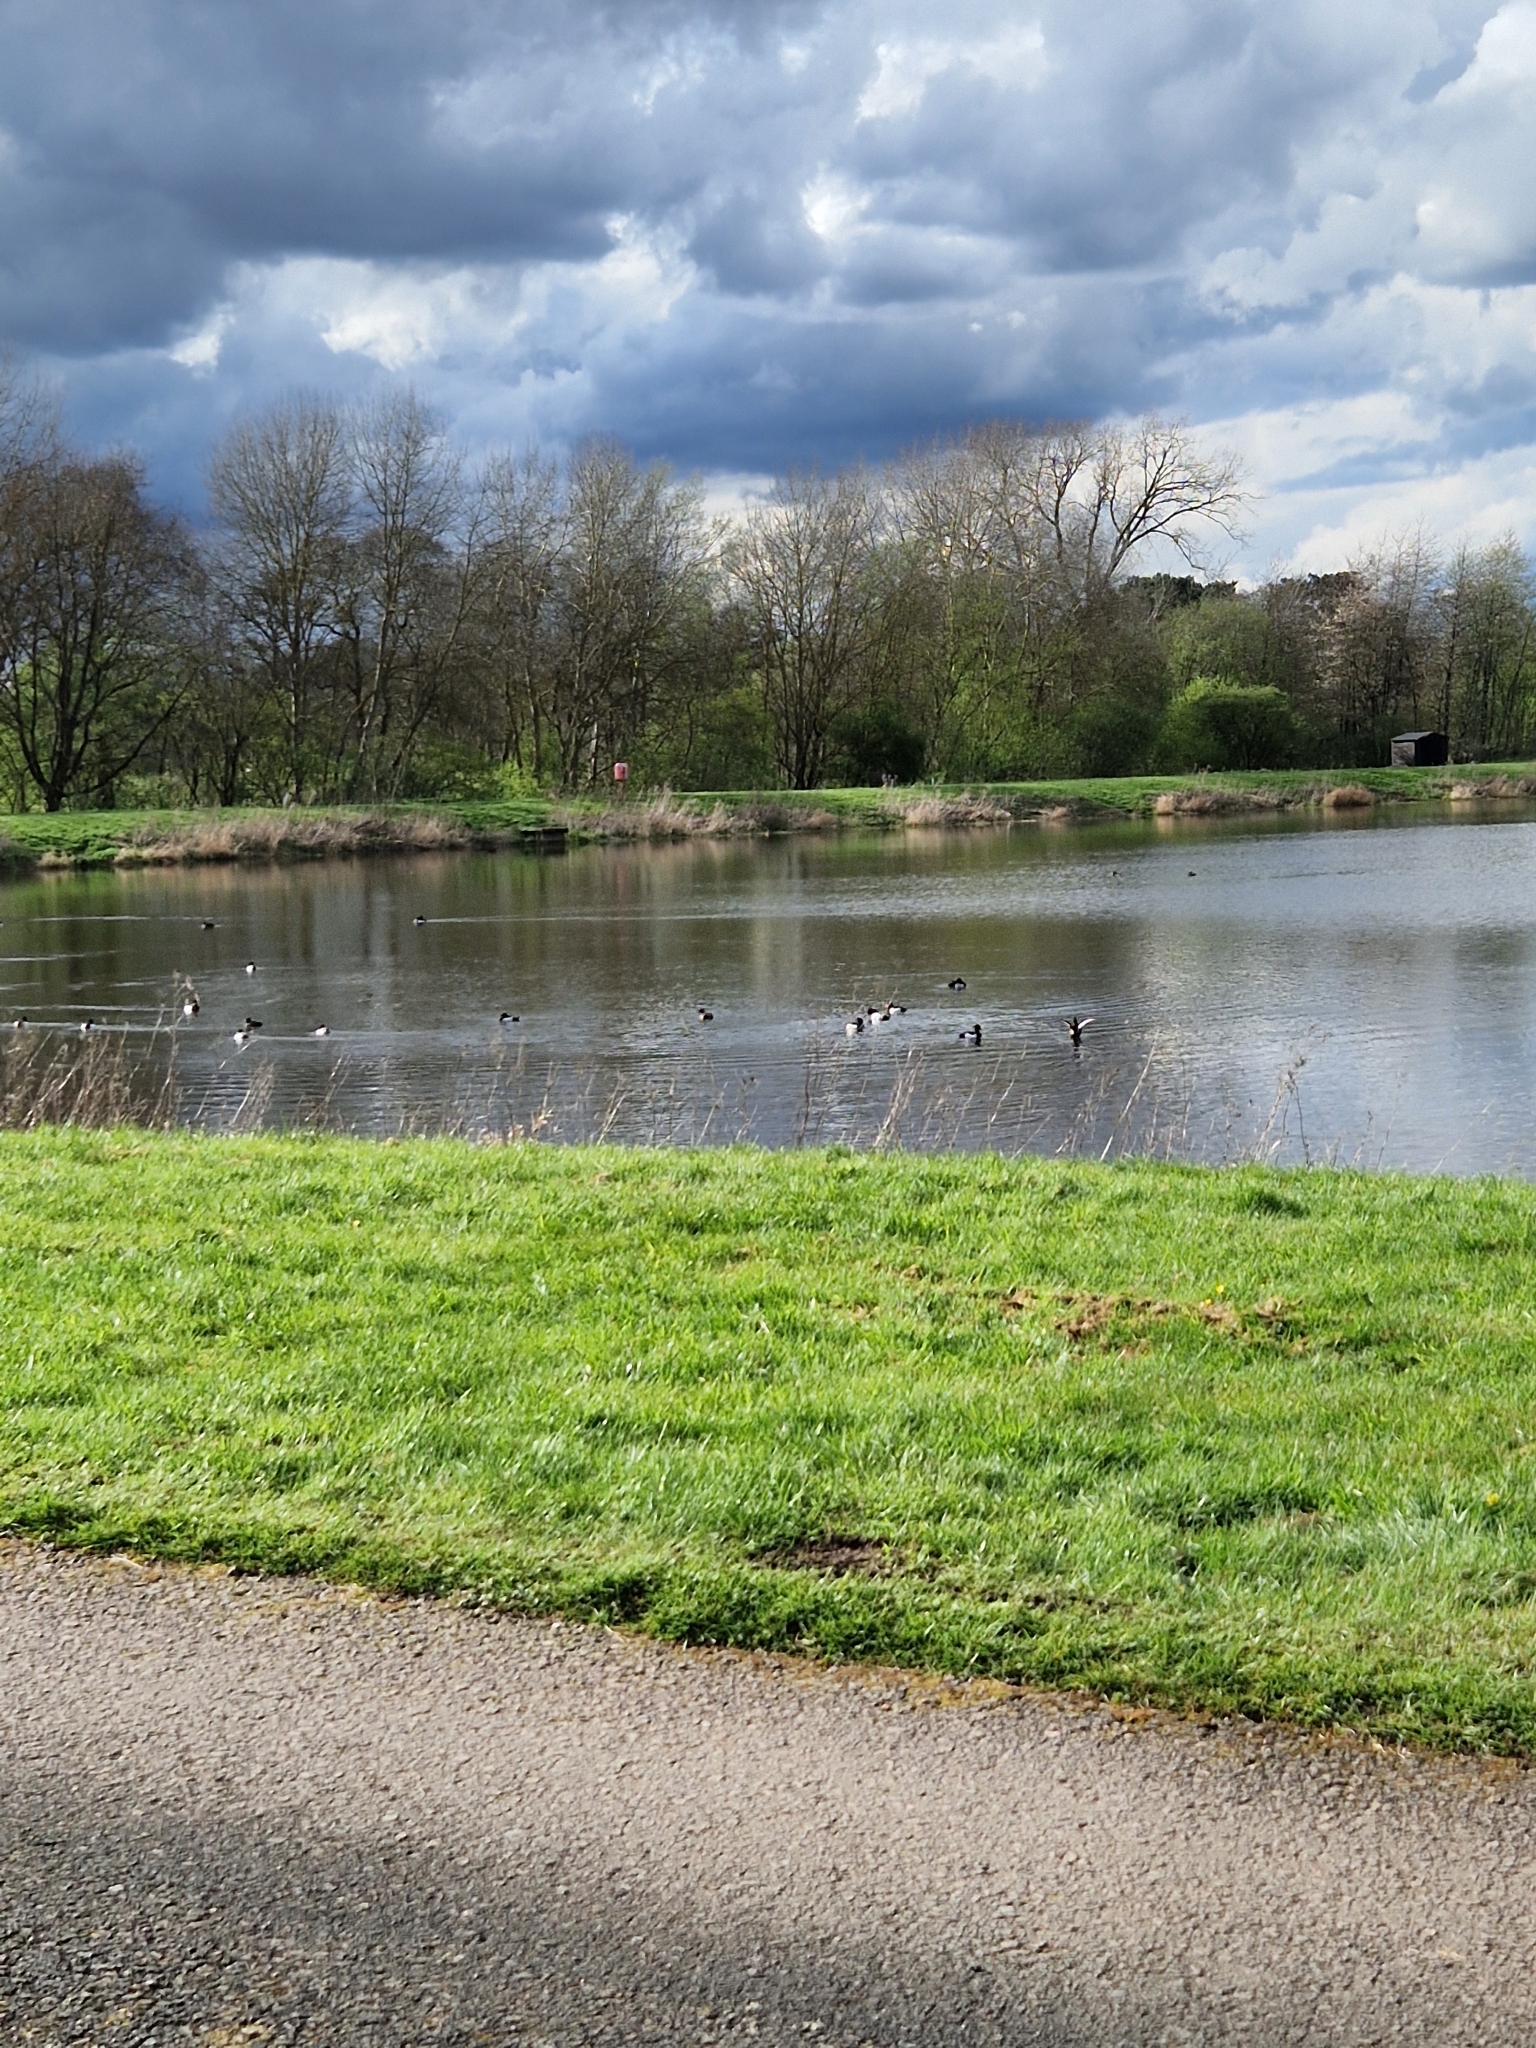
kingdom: Animalia
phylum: Chordata
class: Aves
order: Anseriformes
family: Anatidae
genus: Aythya
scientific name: Aythya fuligula
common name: Tufted duck
